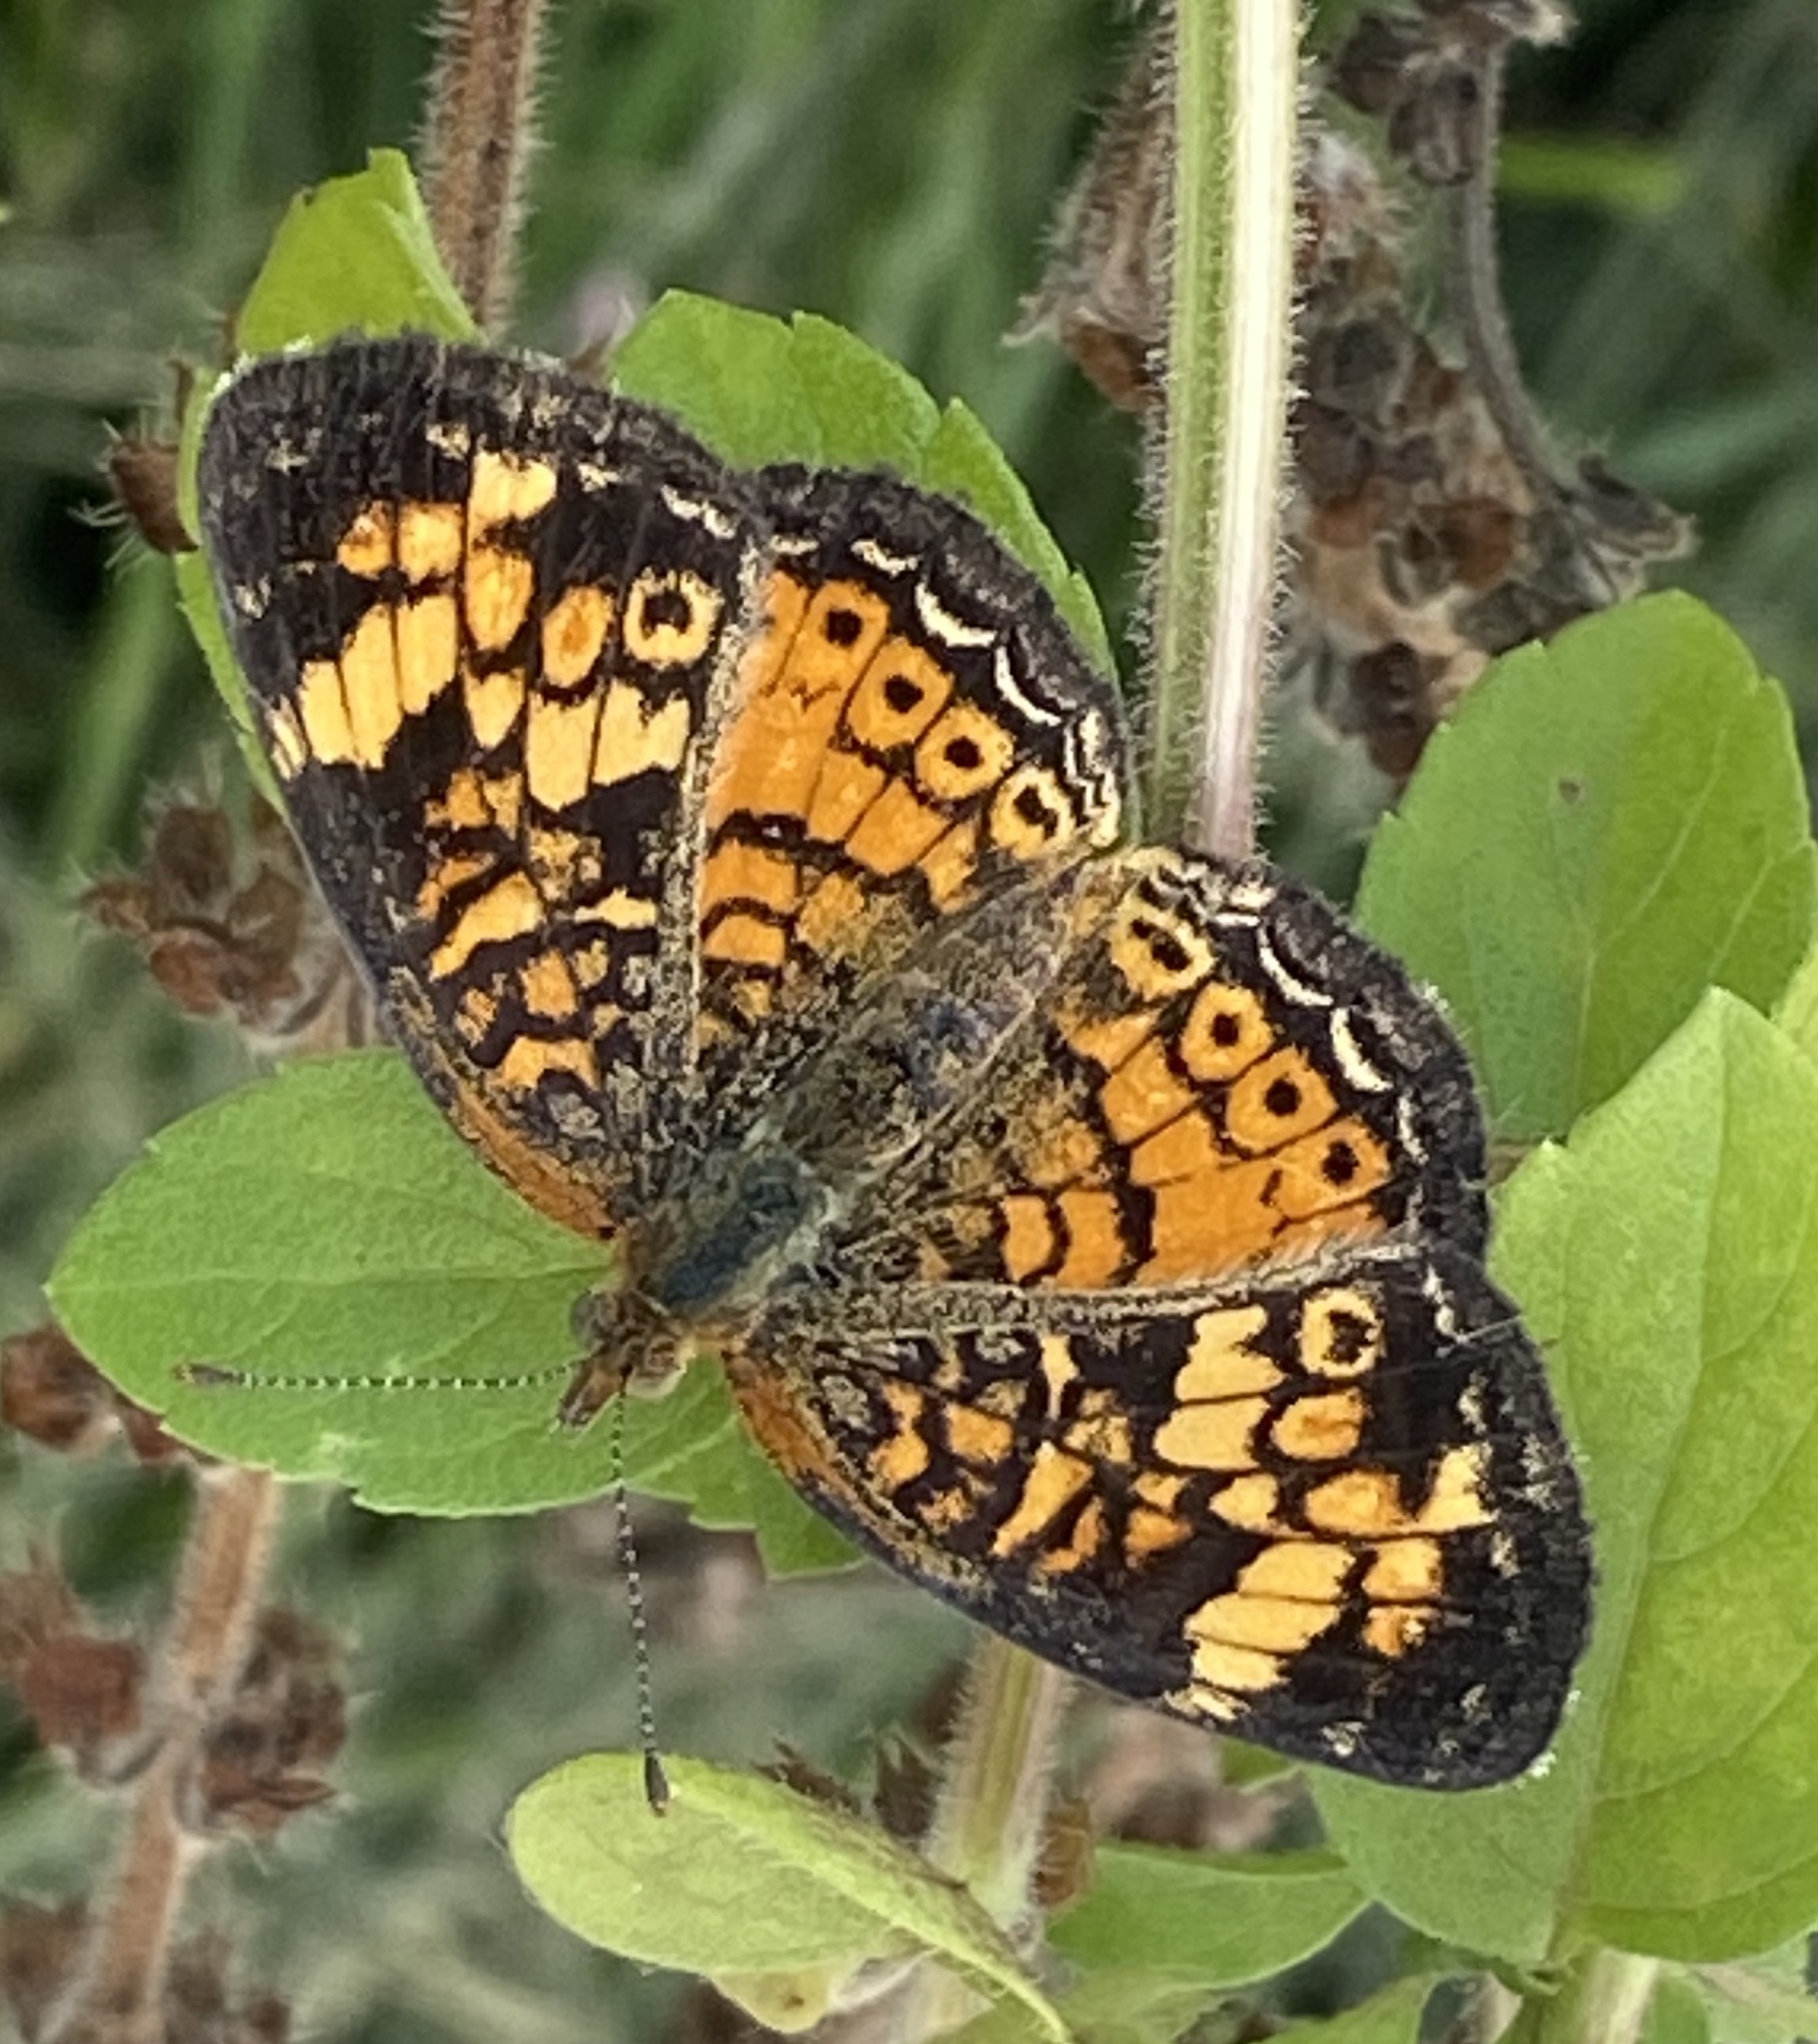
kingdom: Animalia
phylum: Arthropoda
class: Insecta
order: Lepidoptera
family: Nymphalidae
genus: Phyciodes
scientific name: Phyciodes tharos
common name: Pearl crescent
